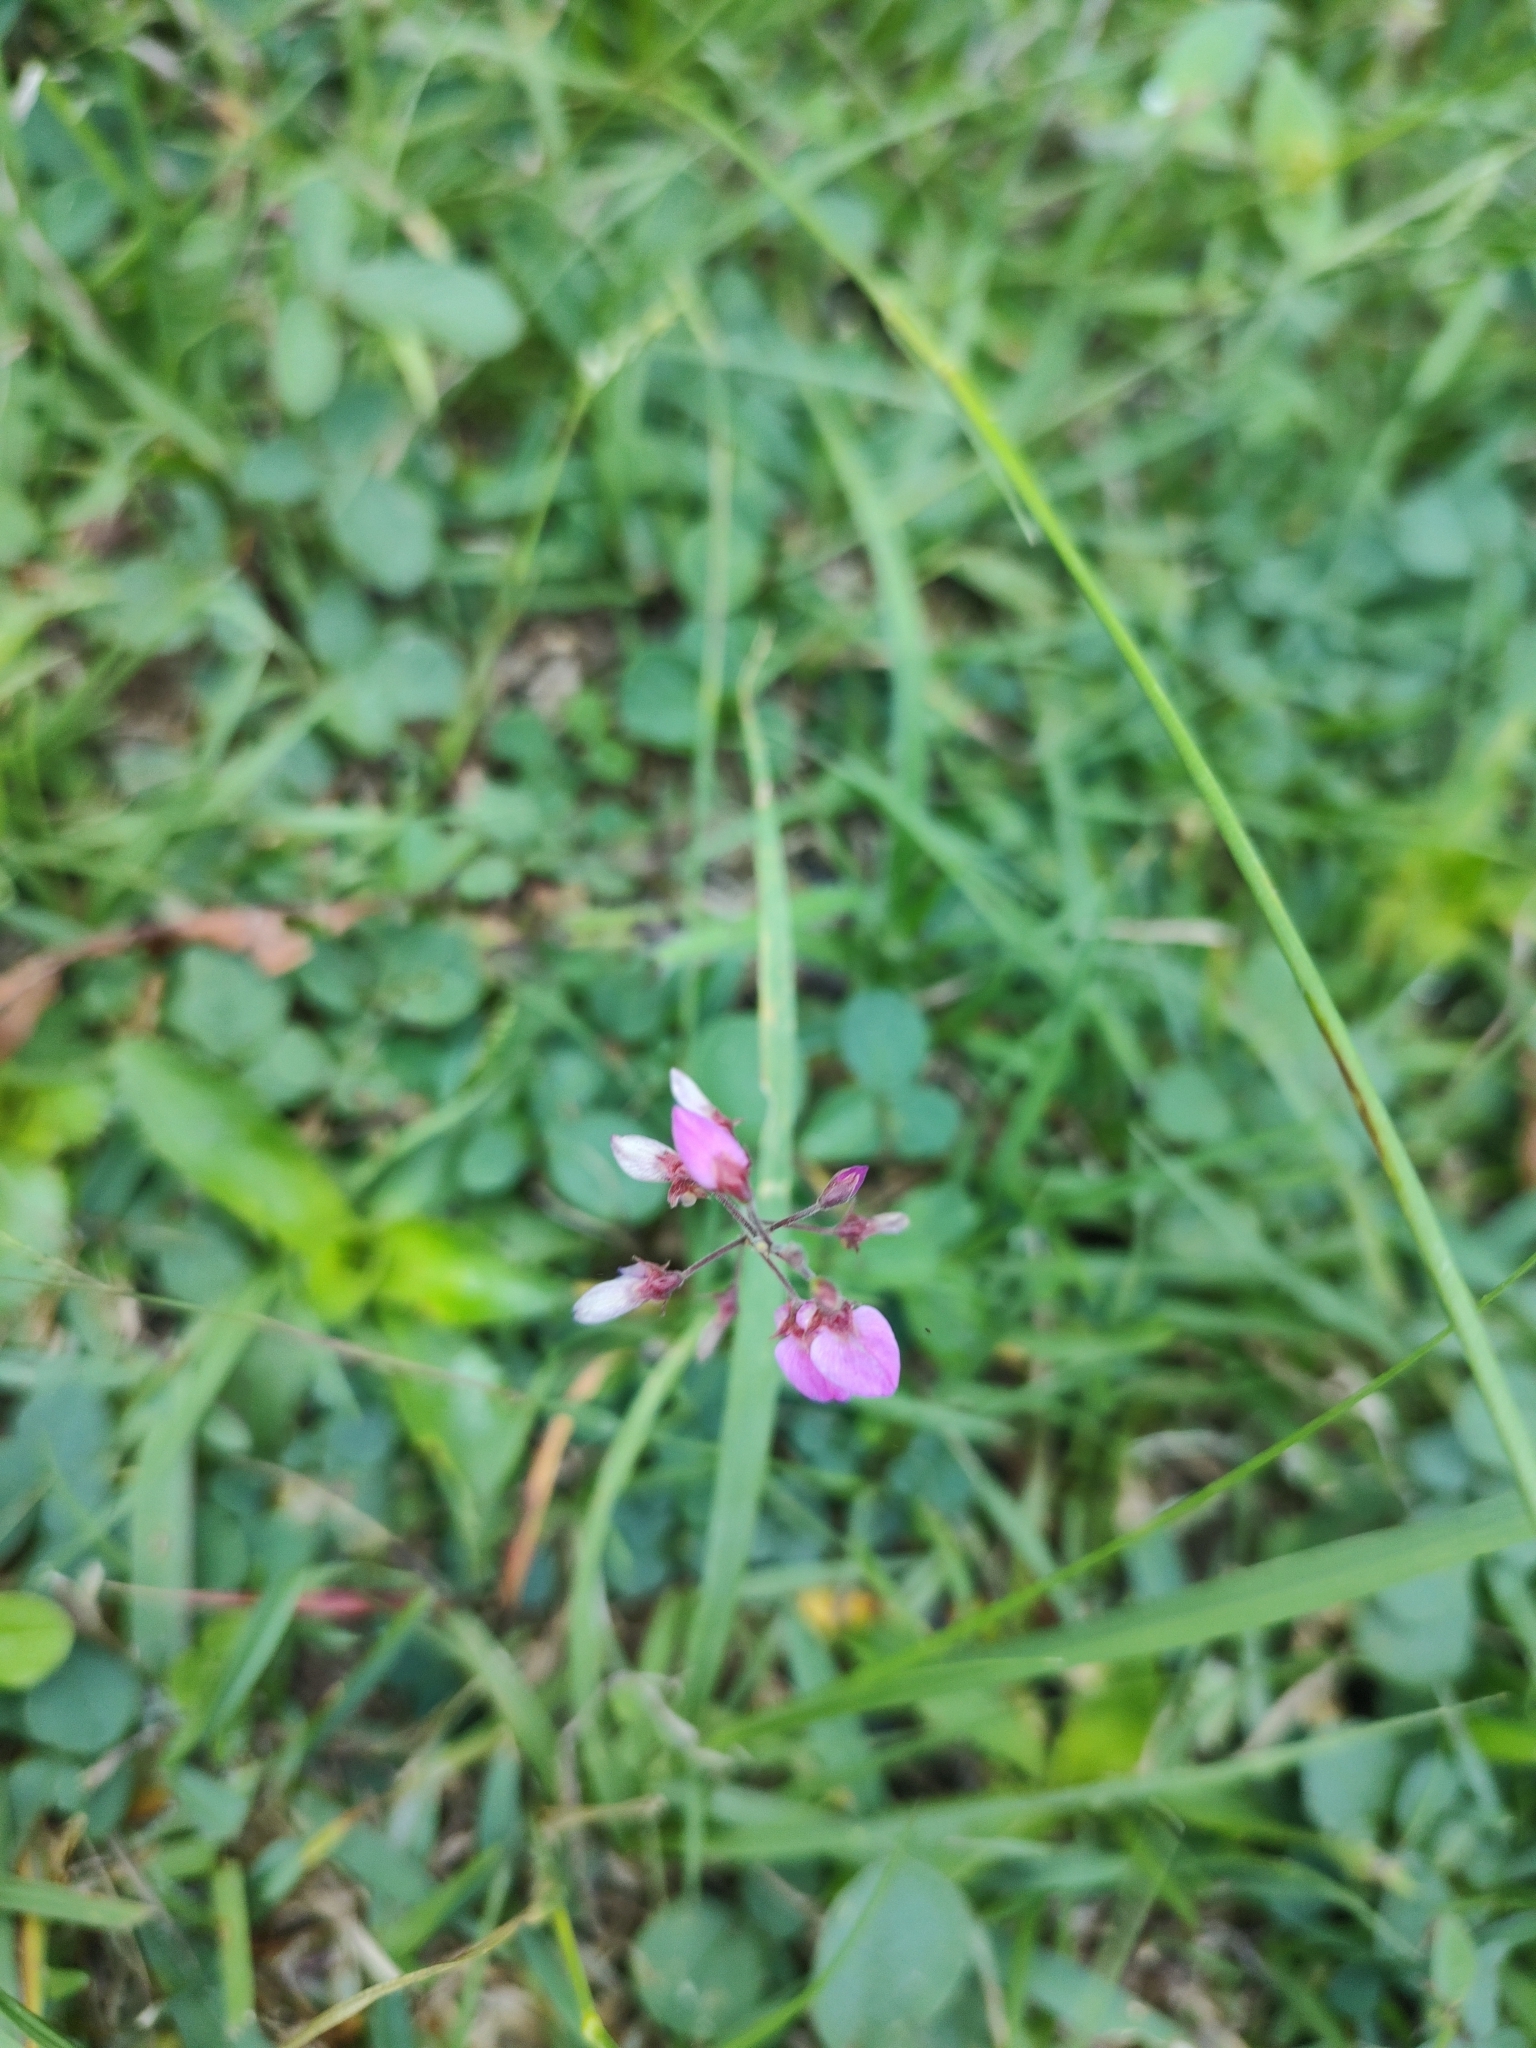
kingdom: Plantae
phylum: Tracheophyta
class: Magnoliopsida
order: Fabales
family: Fabaceae
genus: Desmodium
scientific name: Desmodium incanum
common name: Tickclover
